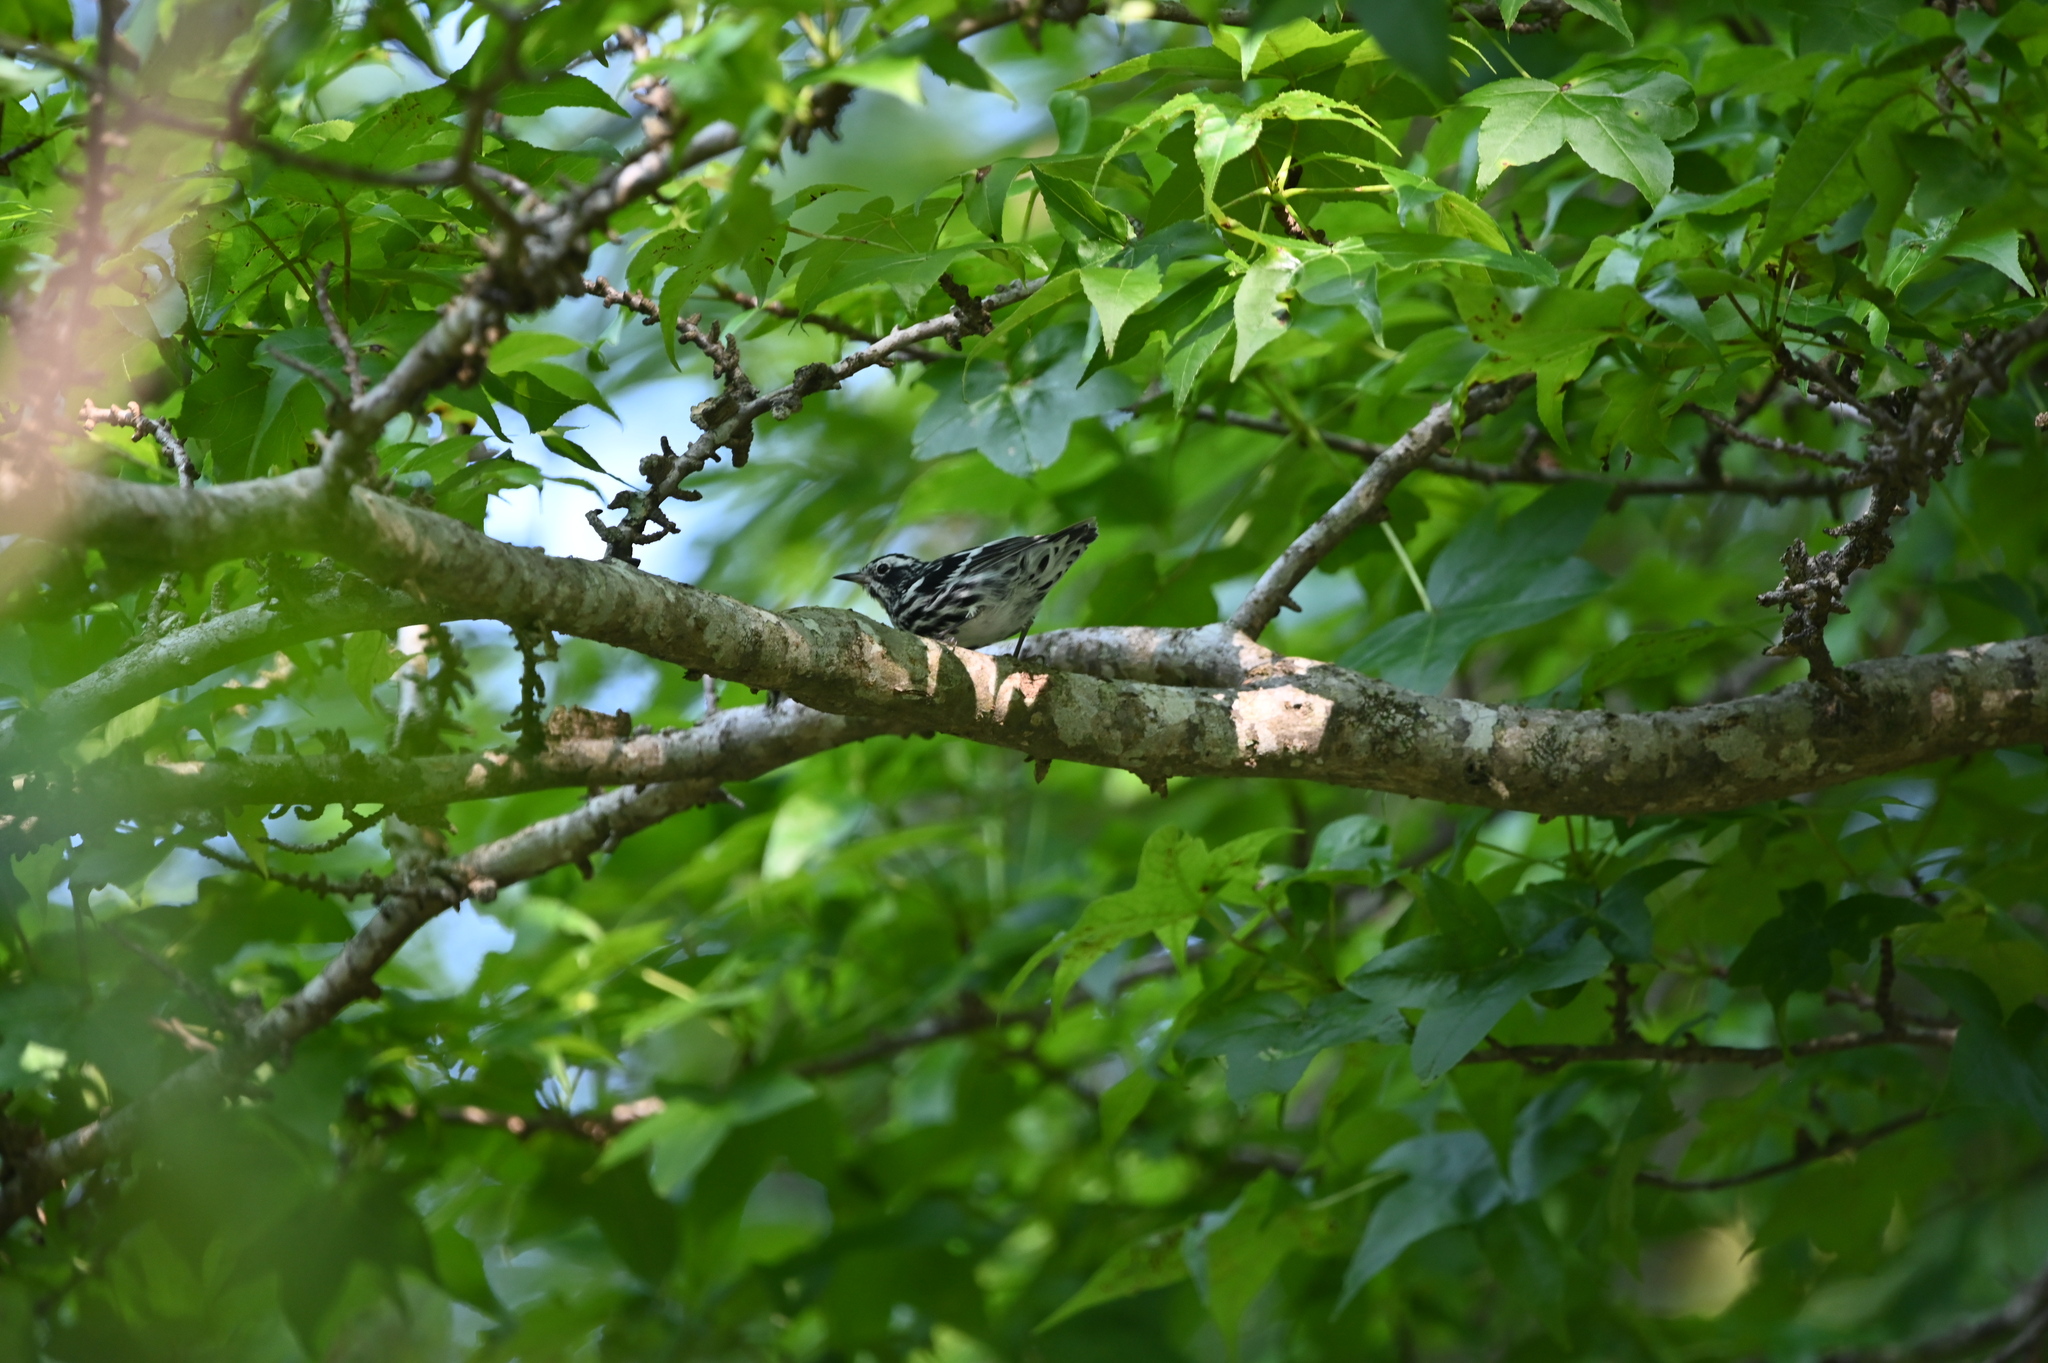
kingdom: Animalia
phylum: Chordata
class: Aves
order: Passeriformes
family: Parulidae
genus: Mniotilta
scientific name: Mniotilta varia
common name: Black-and-white warbler
